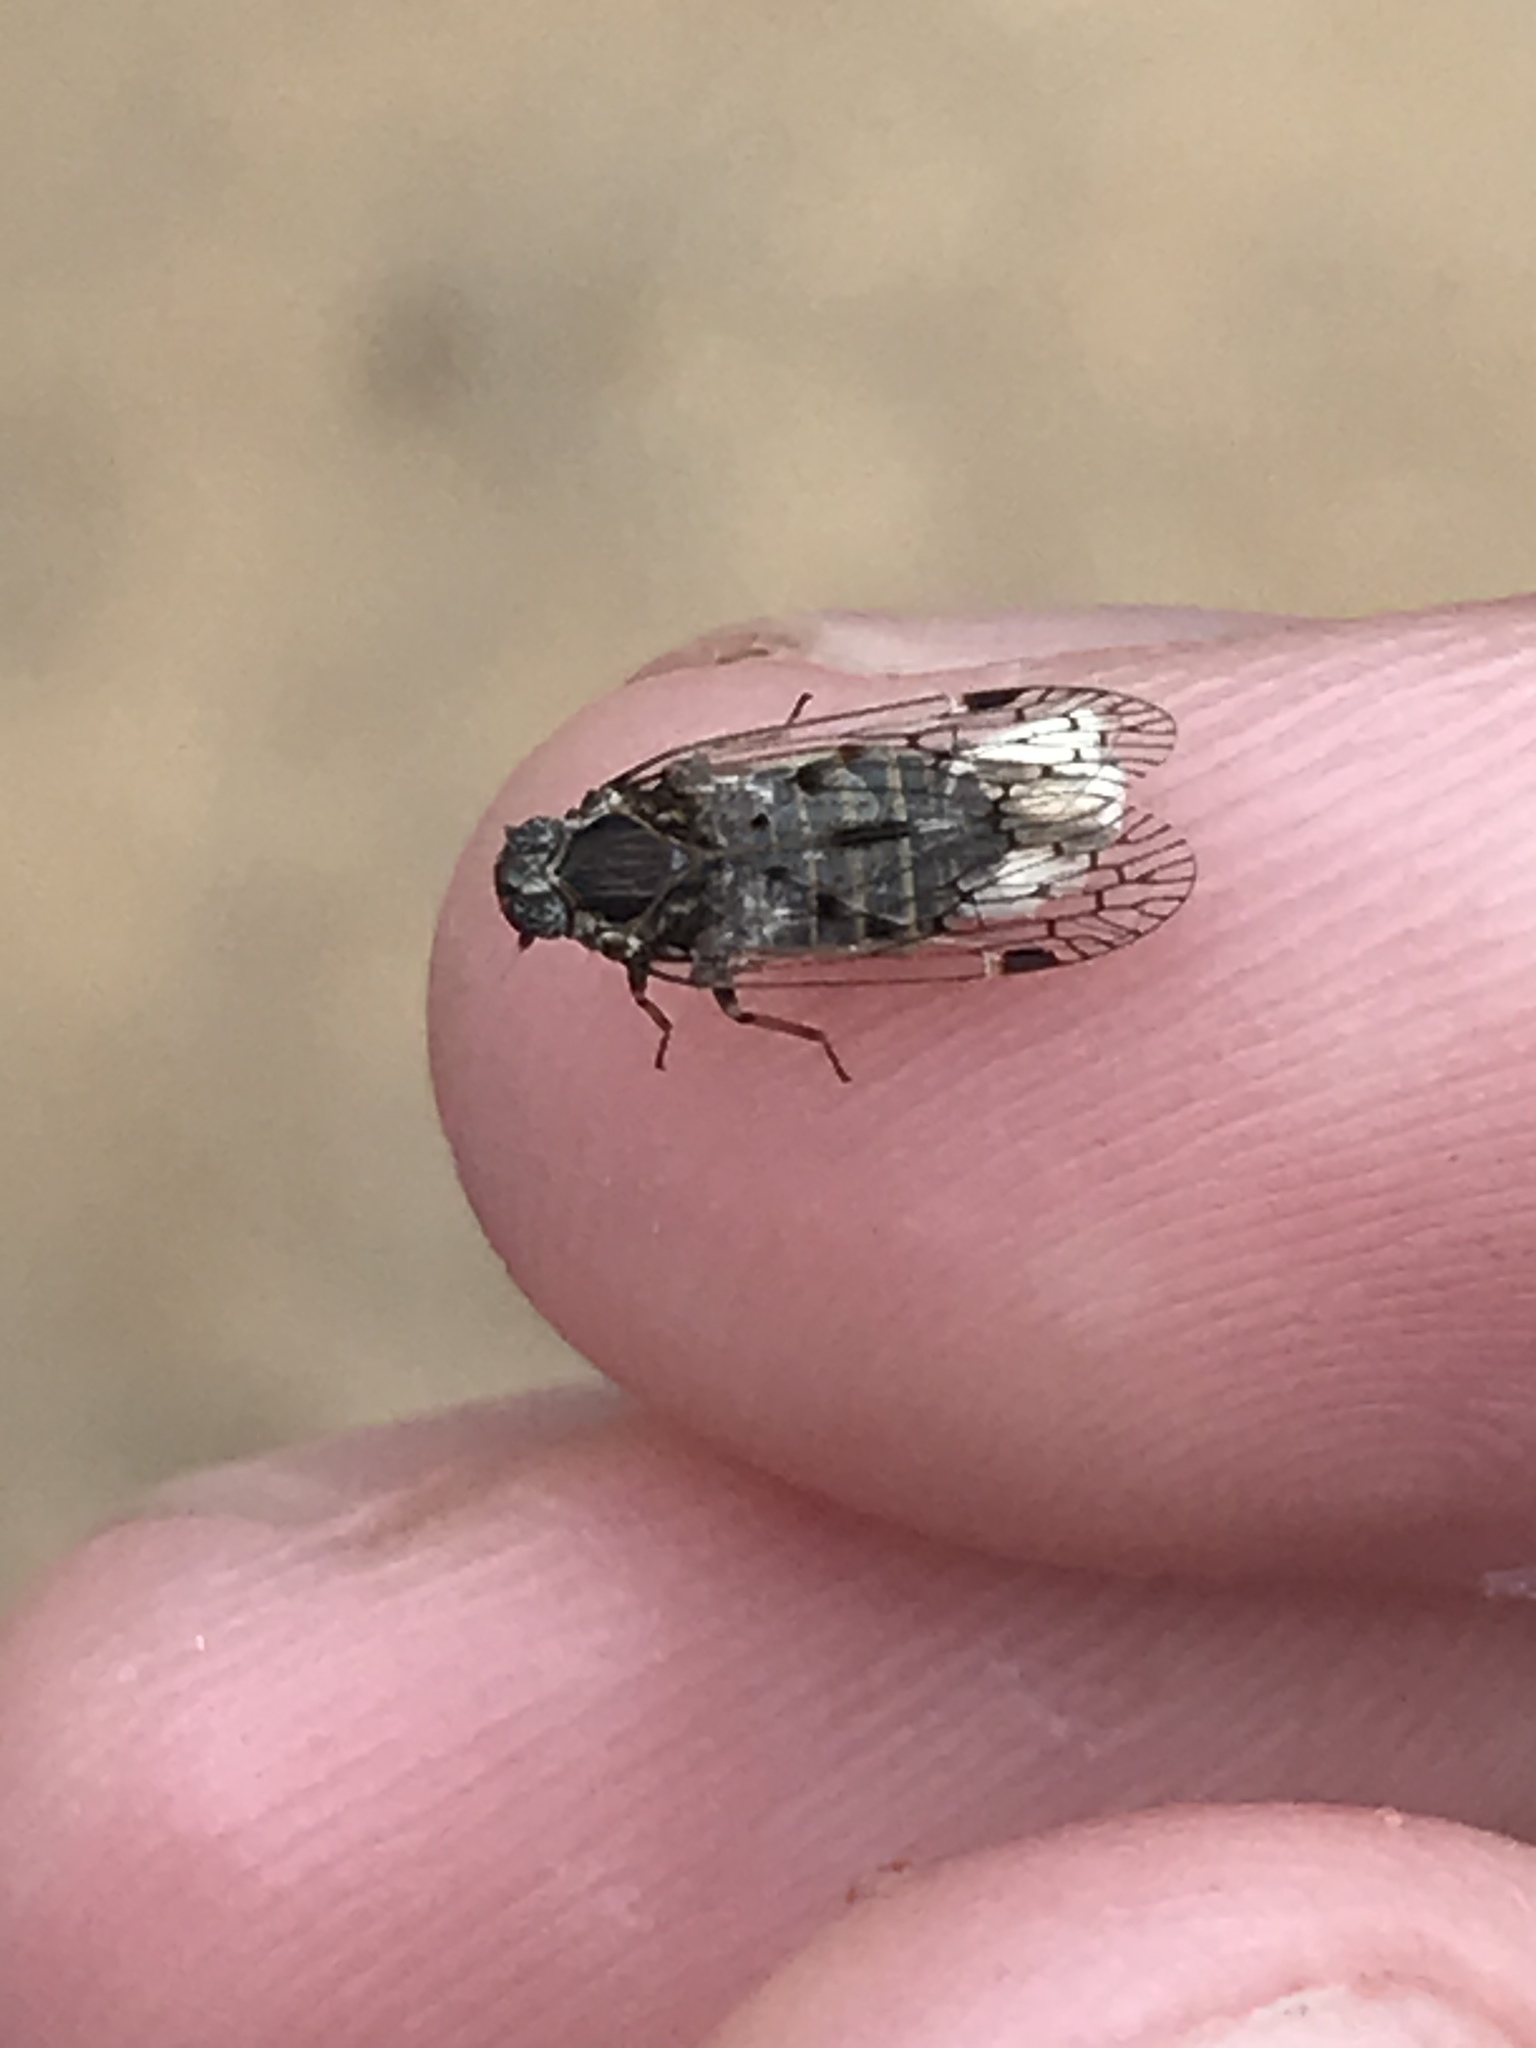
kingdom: Animalia
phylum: Arthropoda
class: Insecta
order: Hemiptera
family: Cixiidae
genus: Melanoliarus
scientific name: Melanoliarus aridus
